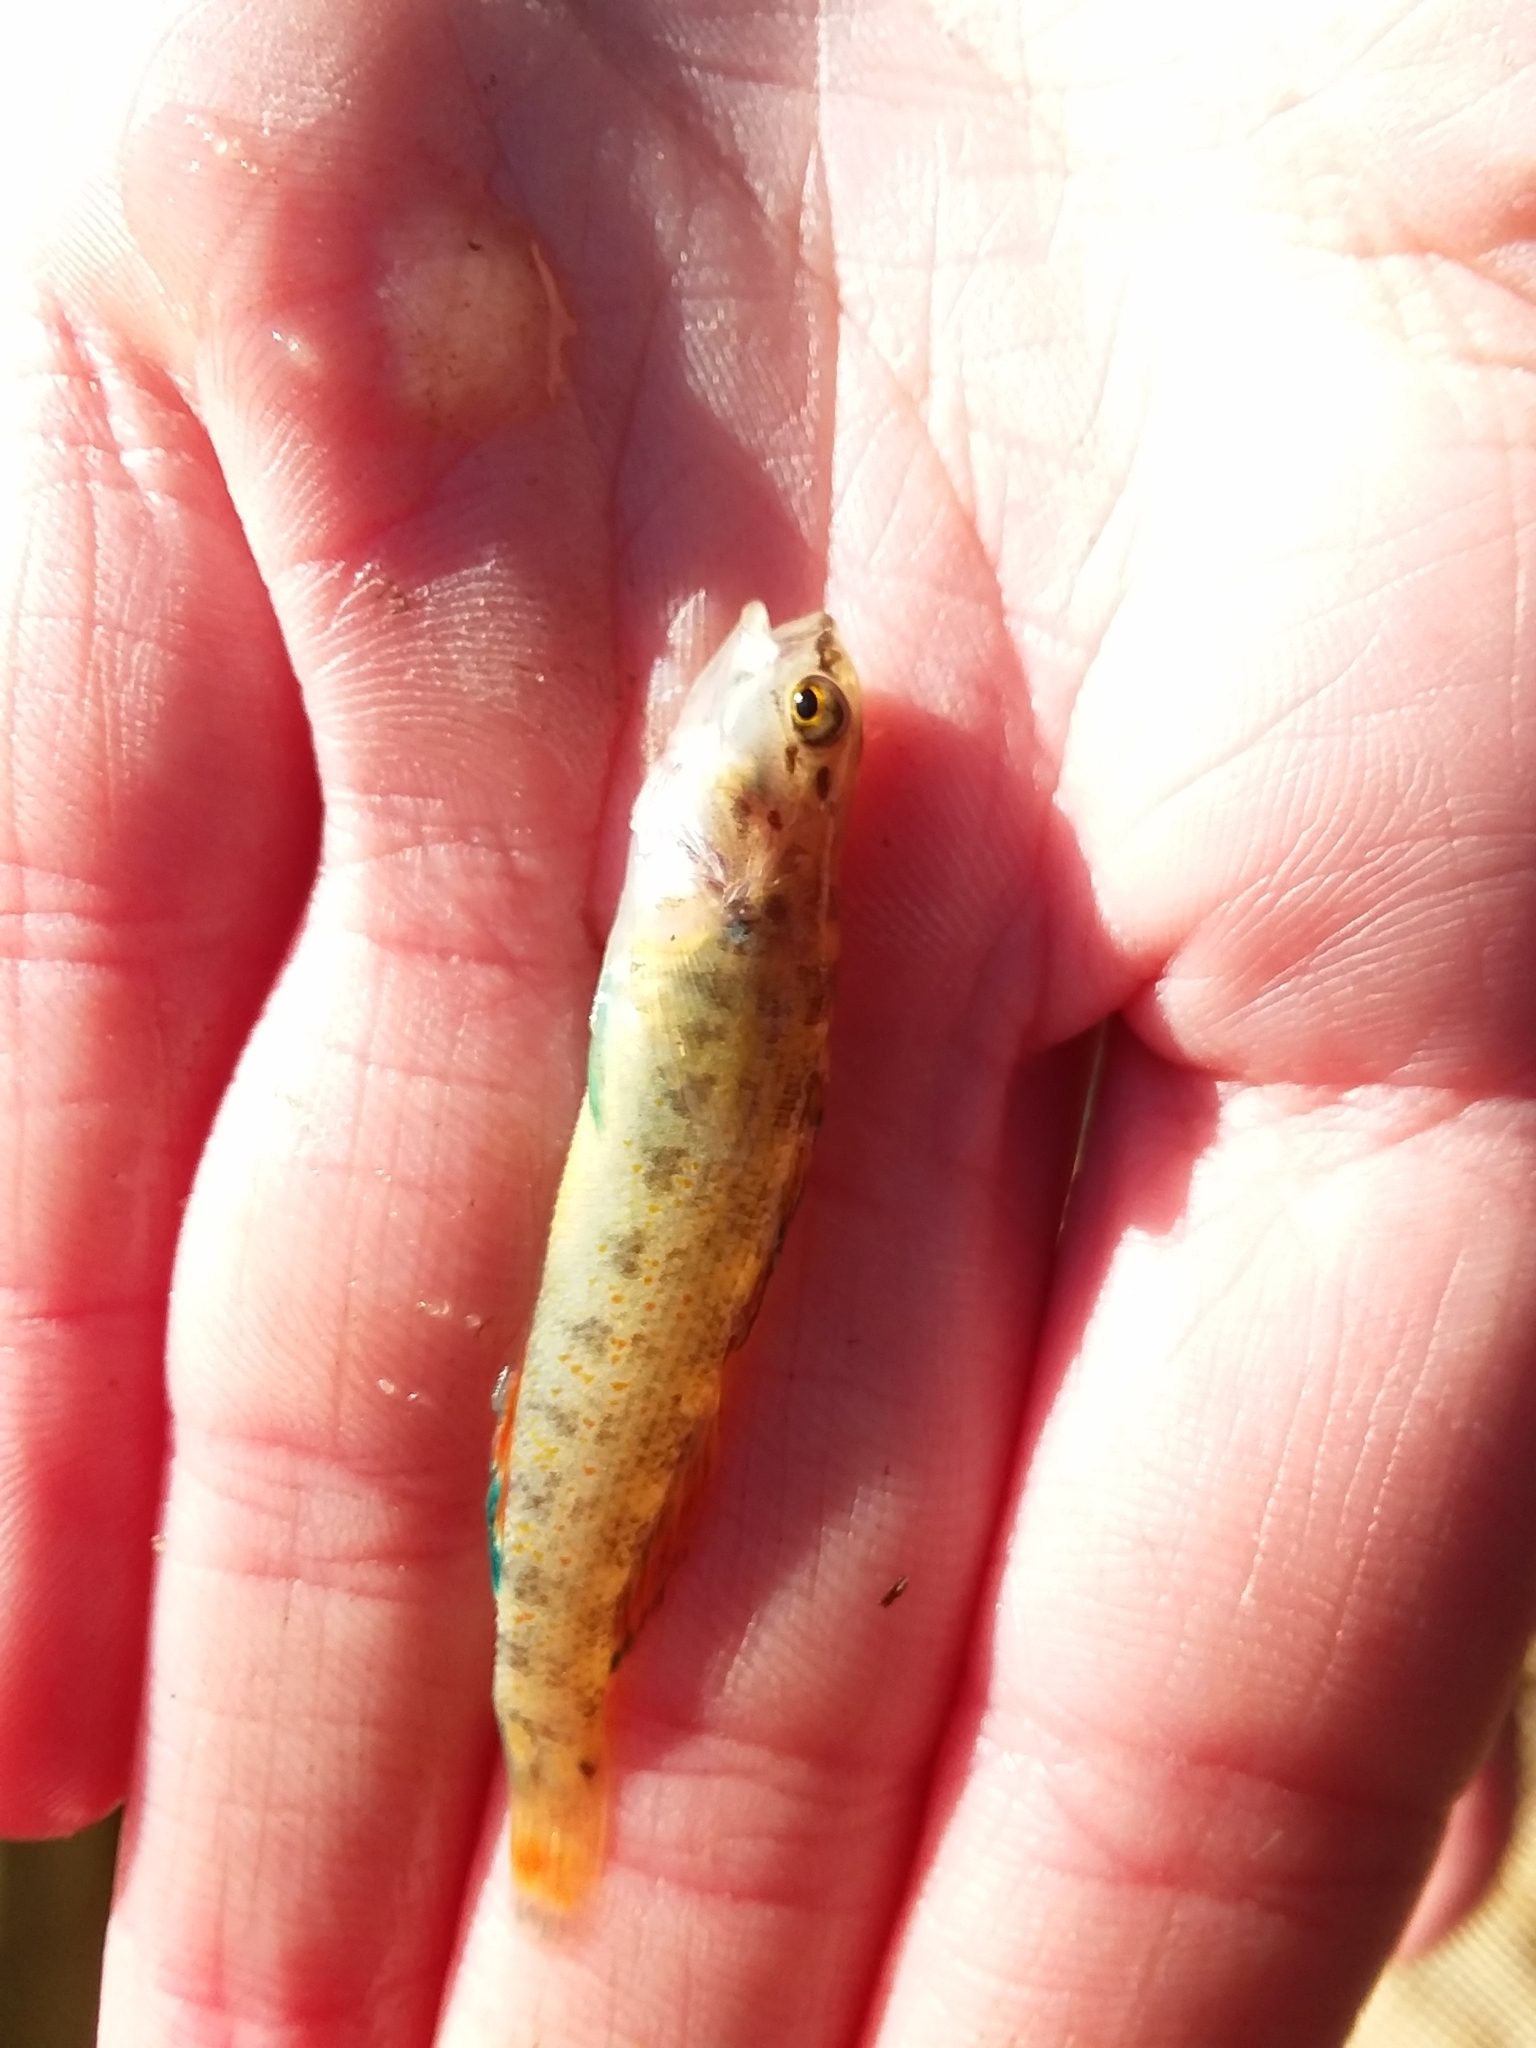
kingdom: Animalia
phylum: Chordata
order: Perciformes
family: Percidae
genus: Etheostoma
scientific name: Etheostoma artesiae
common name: Redspot darter
